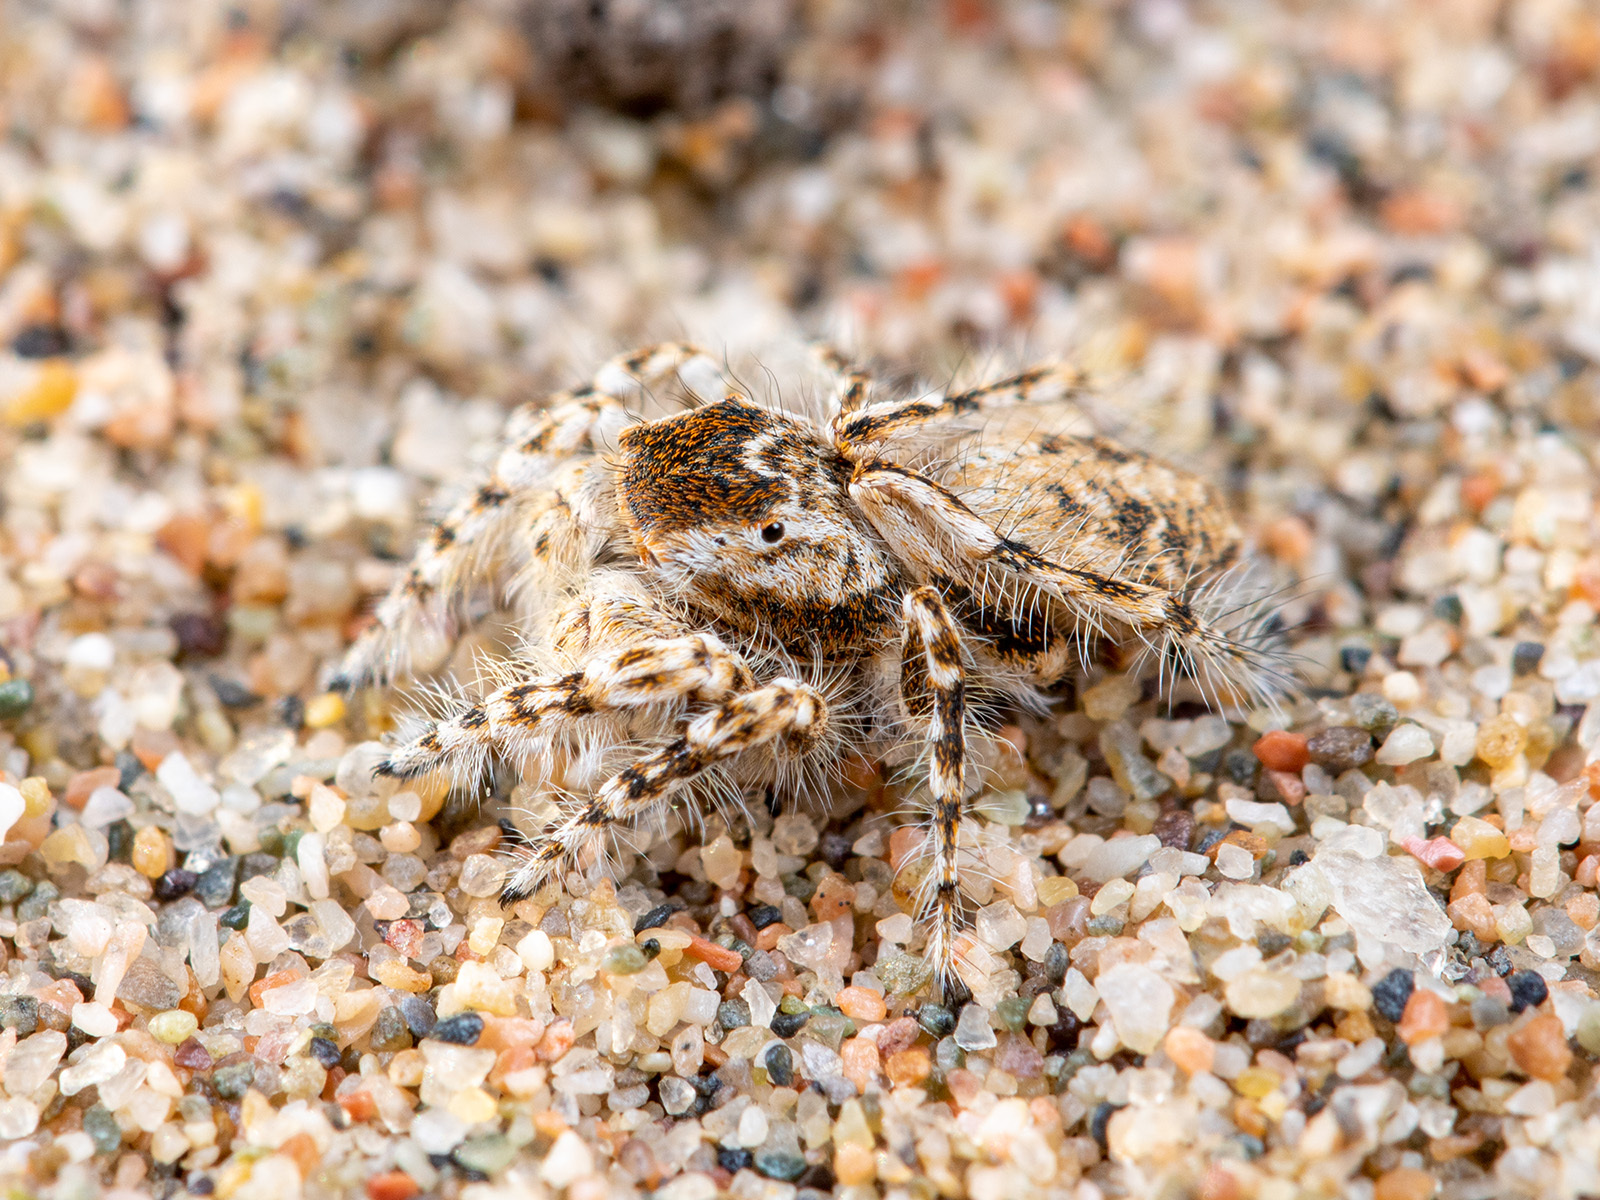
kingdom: Animalia
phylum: Arthropoda
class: Arachnida
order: Araneae
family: Salticidae
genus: Yllenus
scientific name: Yllenus turkestanicus
